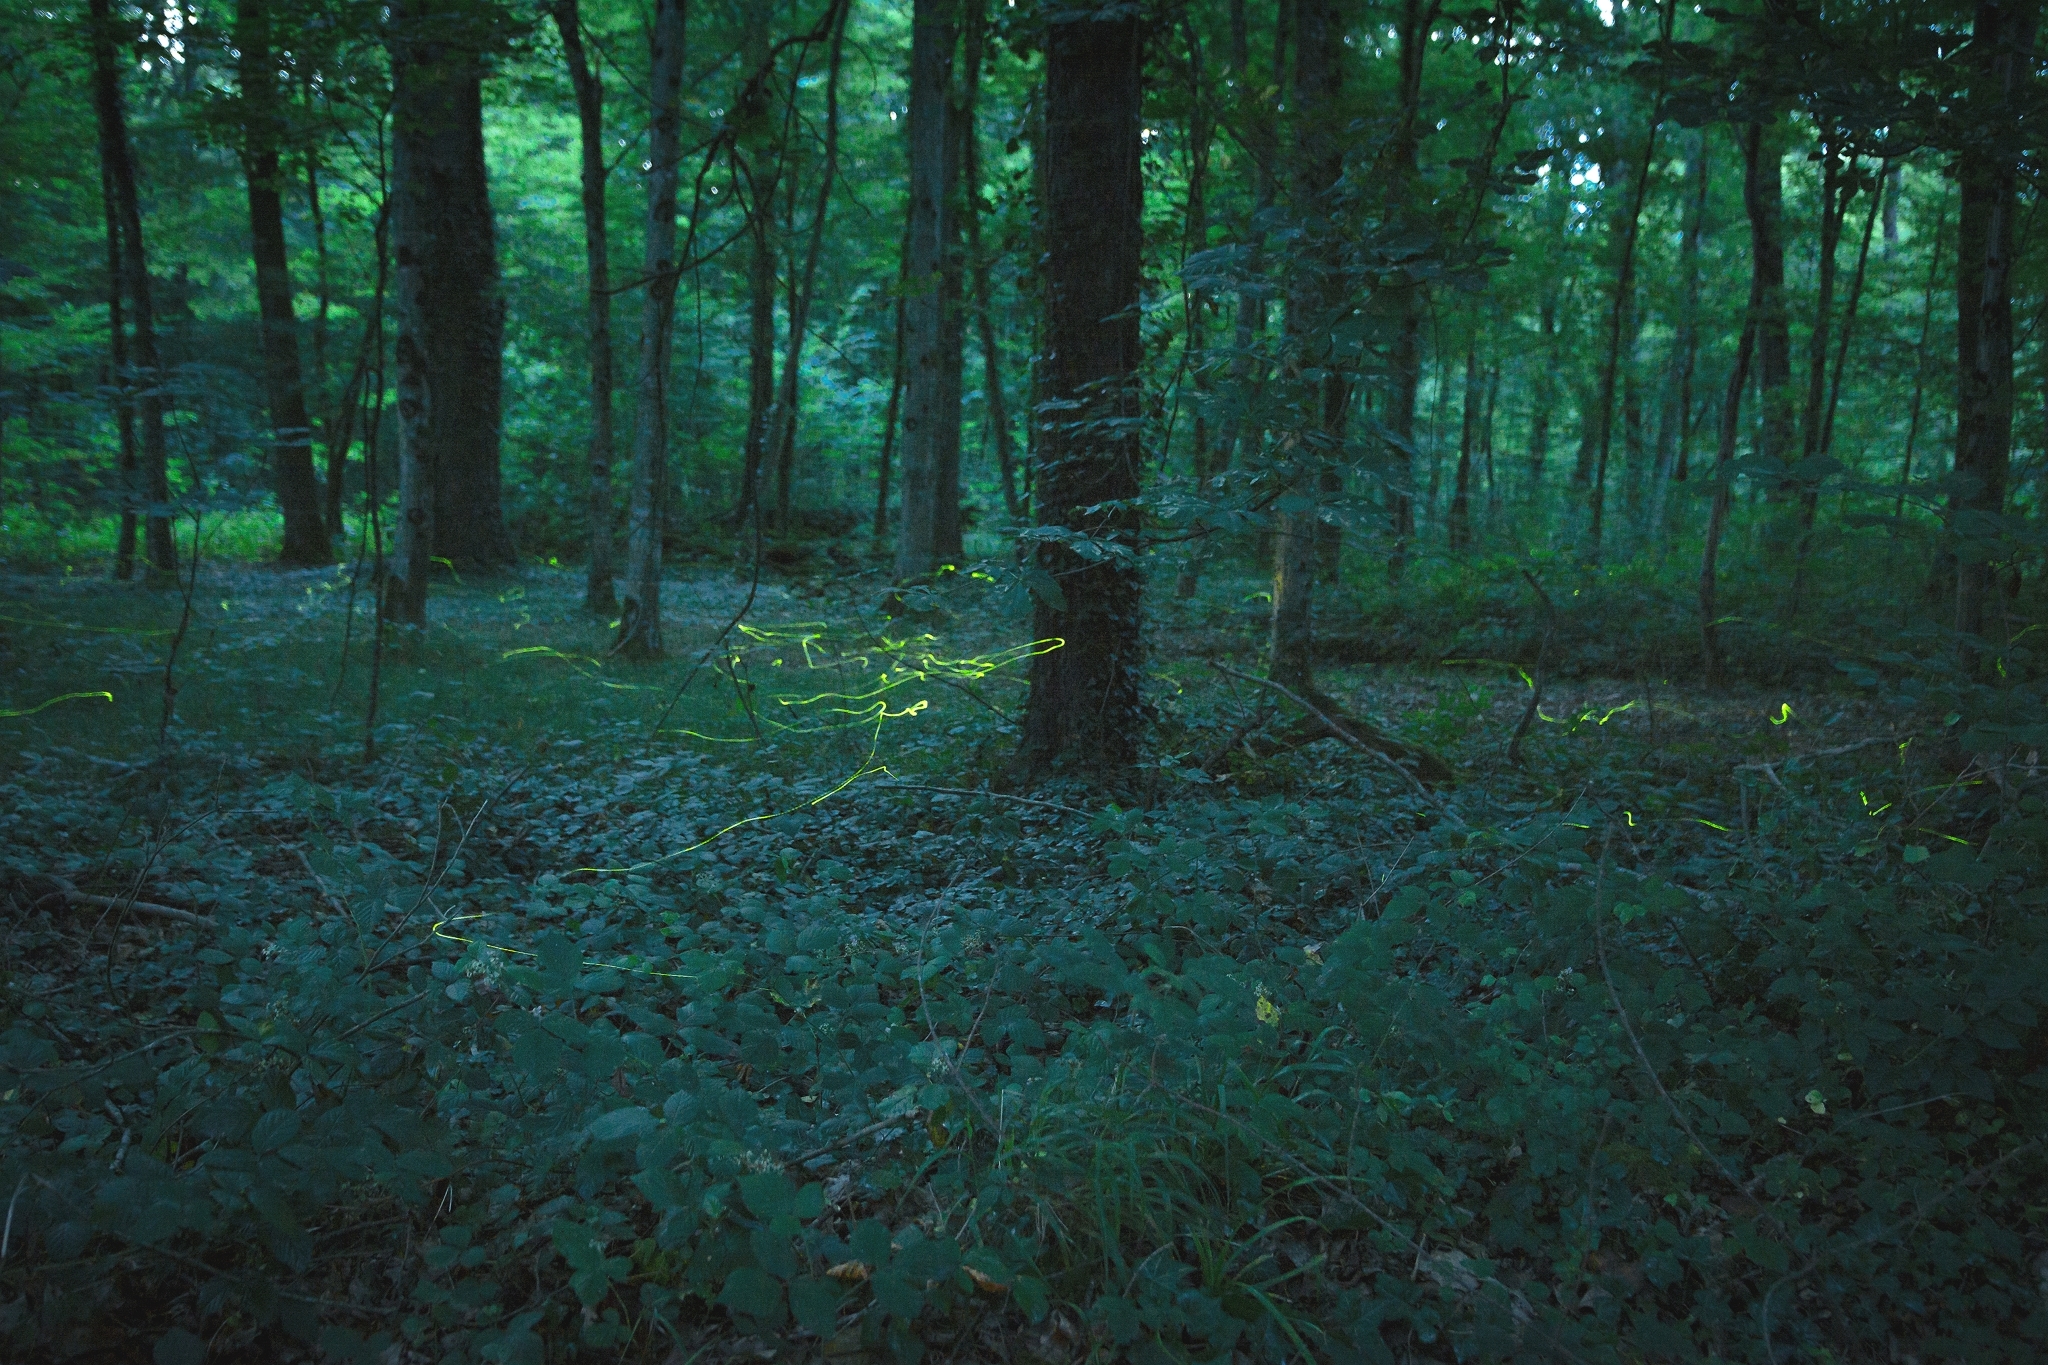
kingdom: Animalia
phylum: Arthropoda
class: Insecta
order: Coleoptera
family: Lampyridae
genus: Lamprohiza
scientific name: Lamprohiza splendidula
